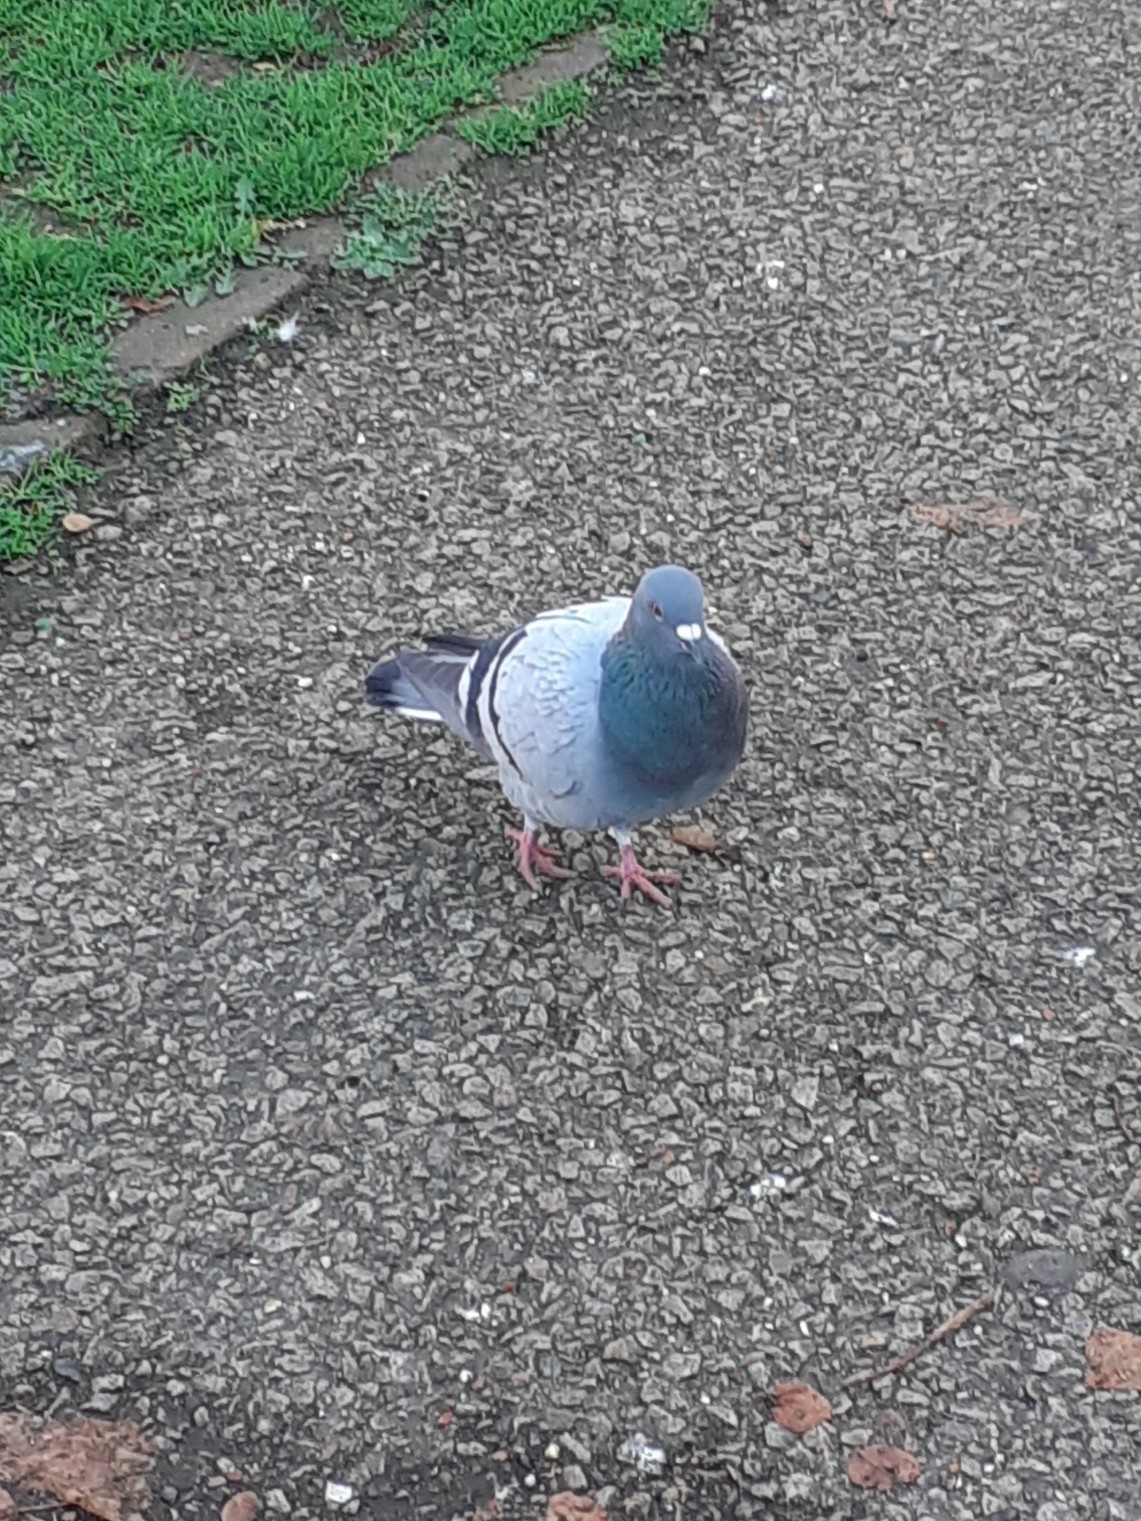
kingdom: Animalia
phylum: Chordata
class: Aves
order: Columbiformes
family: Columbidae
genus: Columba
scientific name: Columba livia
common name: Rock pigeon
